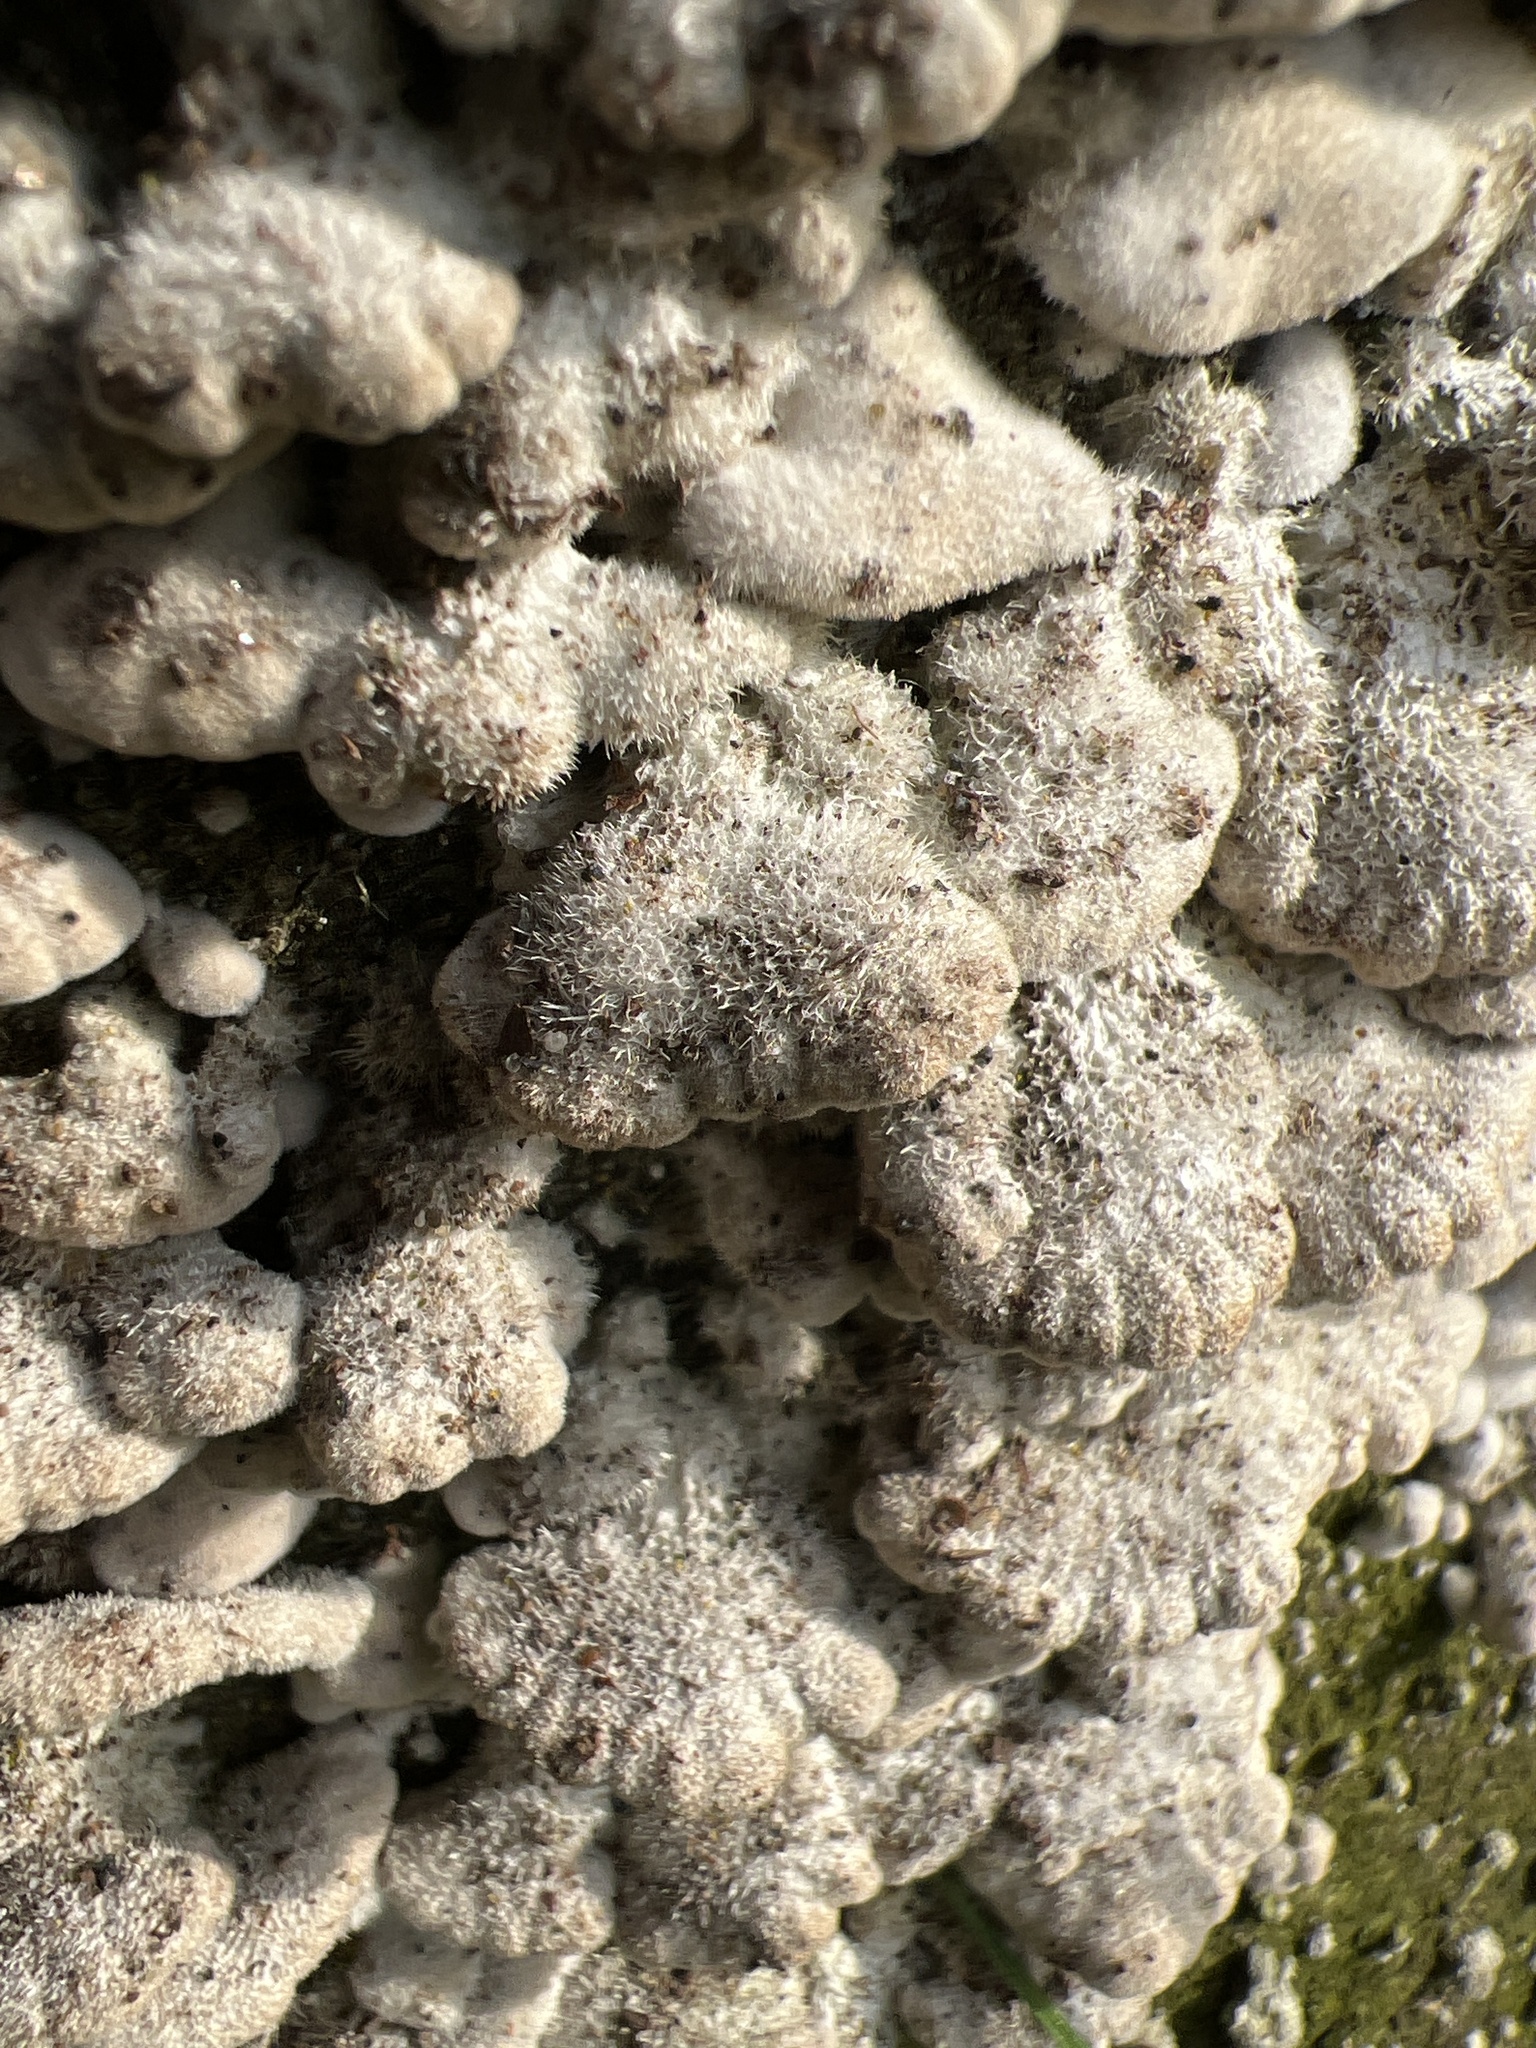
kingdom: Fungi
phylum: Basidiomycota
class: Agaricomycetes
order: Agaricales
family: Schizophyllaceae
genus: Schizophyllum
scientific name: Schizophyllum commune
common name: Common porecrust
